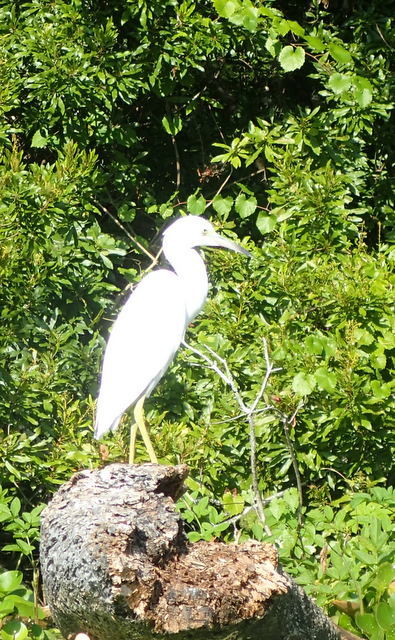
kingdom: Animalia
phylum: Chordata
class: Aves
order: Pelecaniformes
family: Ardeidae
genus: Egretta
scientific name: Egretta caerulea
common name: Little blue heron
